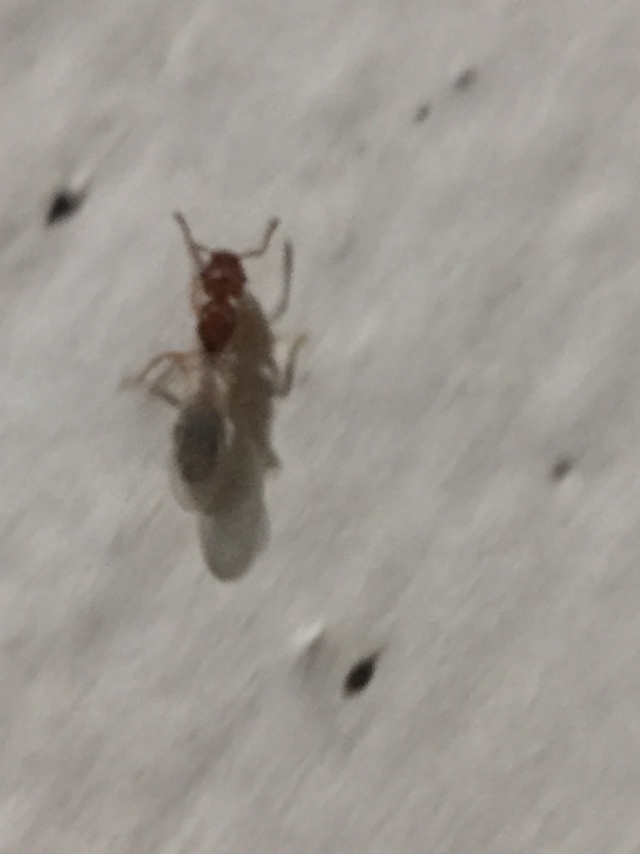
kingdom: Animalia
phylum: Arthropoda
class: Insecta
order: Hymenoptera
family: Formicidae
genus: Tetramorium
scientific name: Tetramorium bicarinatum
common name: Guinea ant
